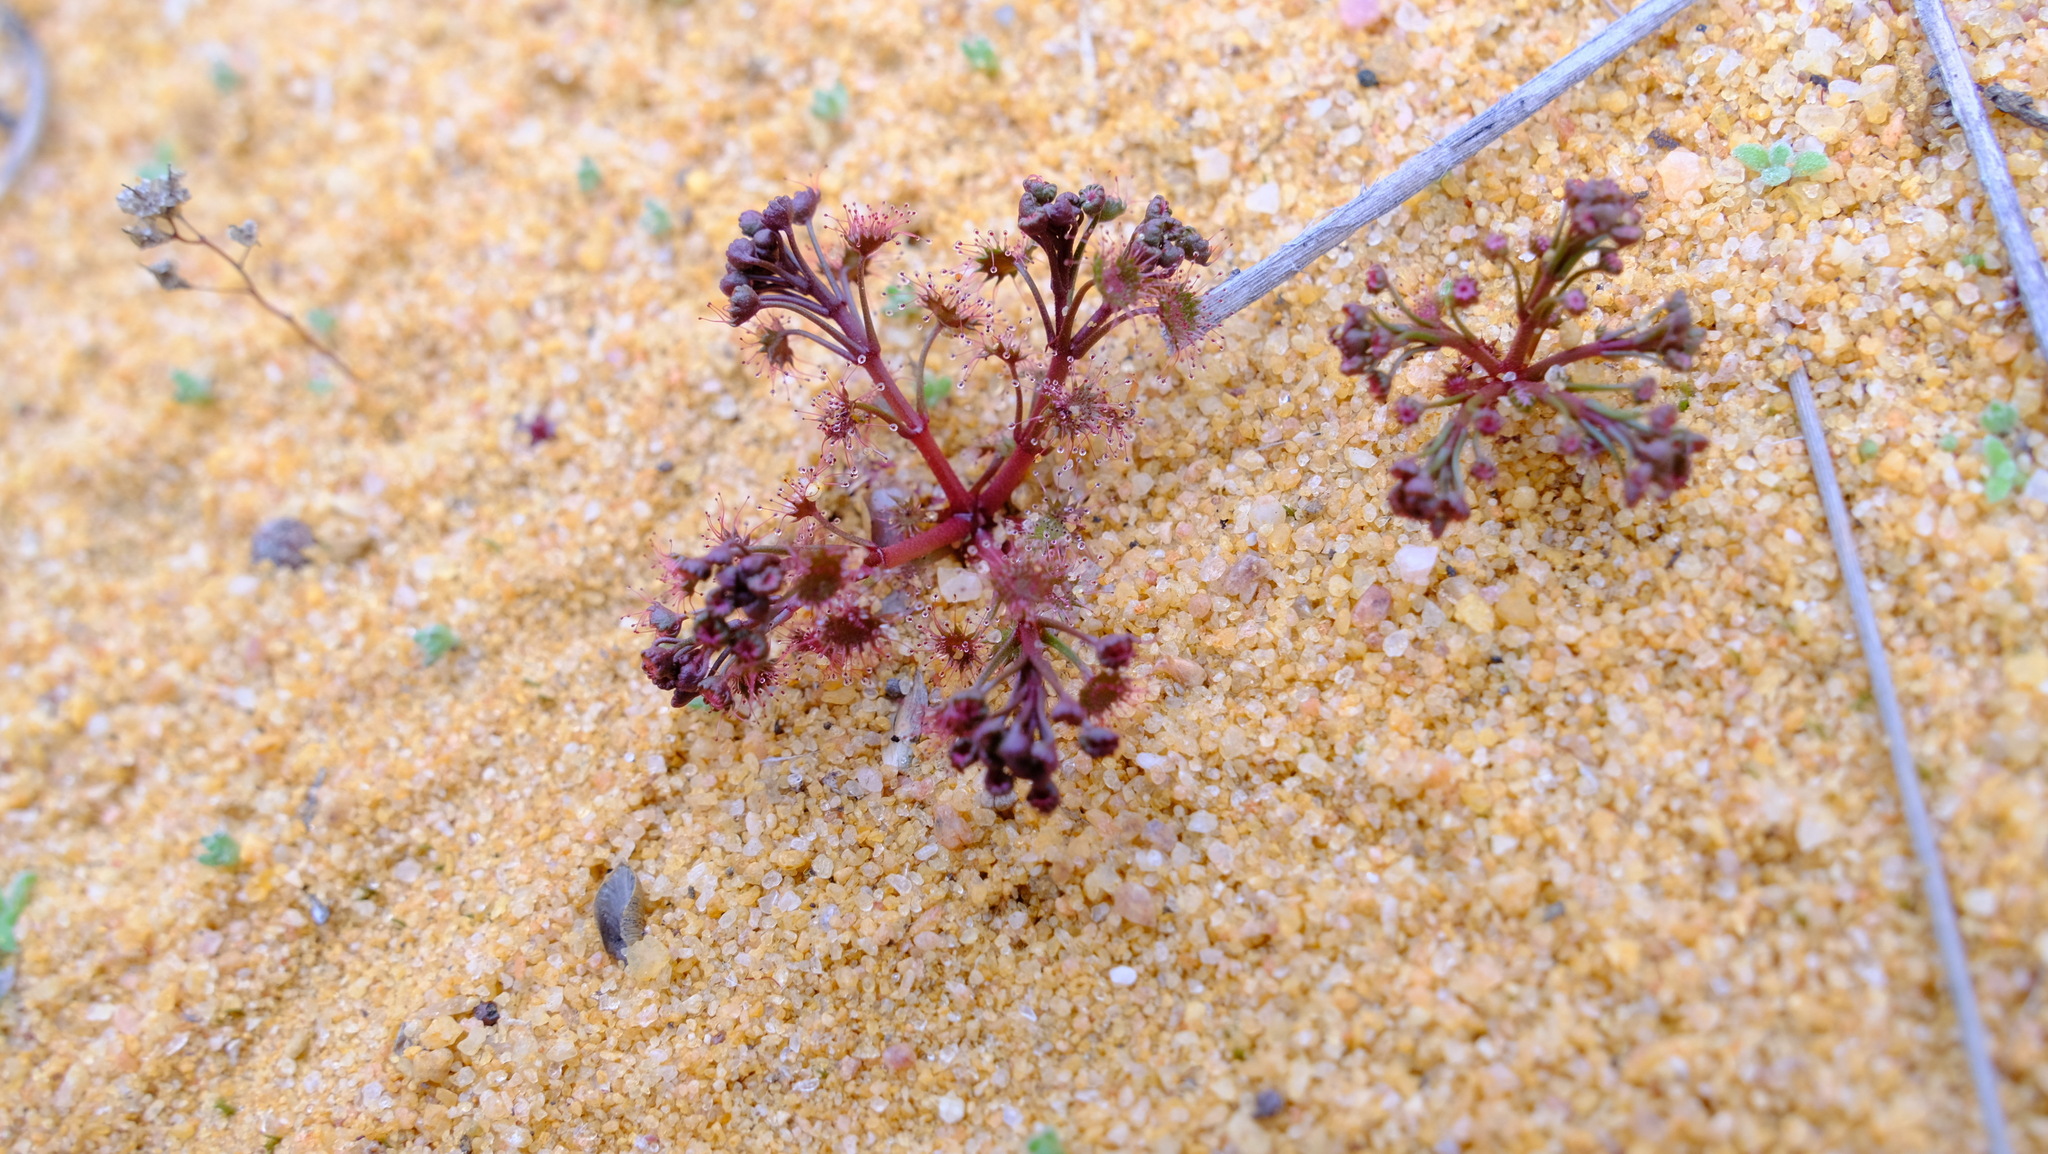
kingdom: Plantae
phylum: Tracheophyta
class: Magnoliopsida
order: Caryophyllales
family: Droseraceae
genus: Drosera
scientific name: Drosera stolonifera
